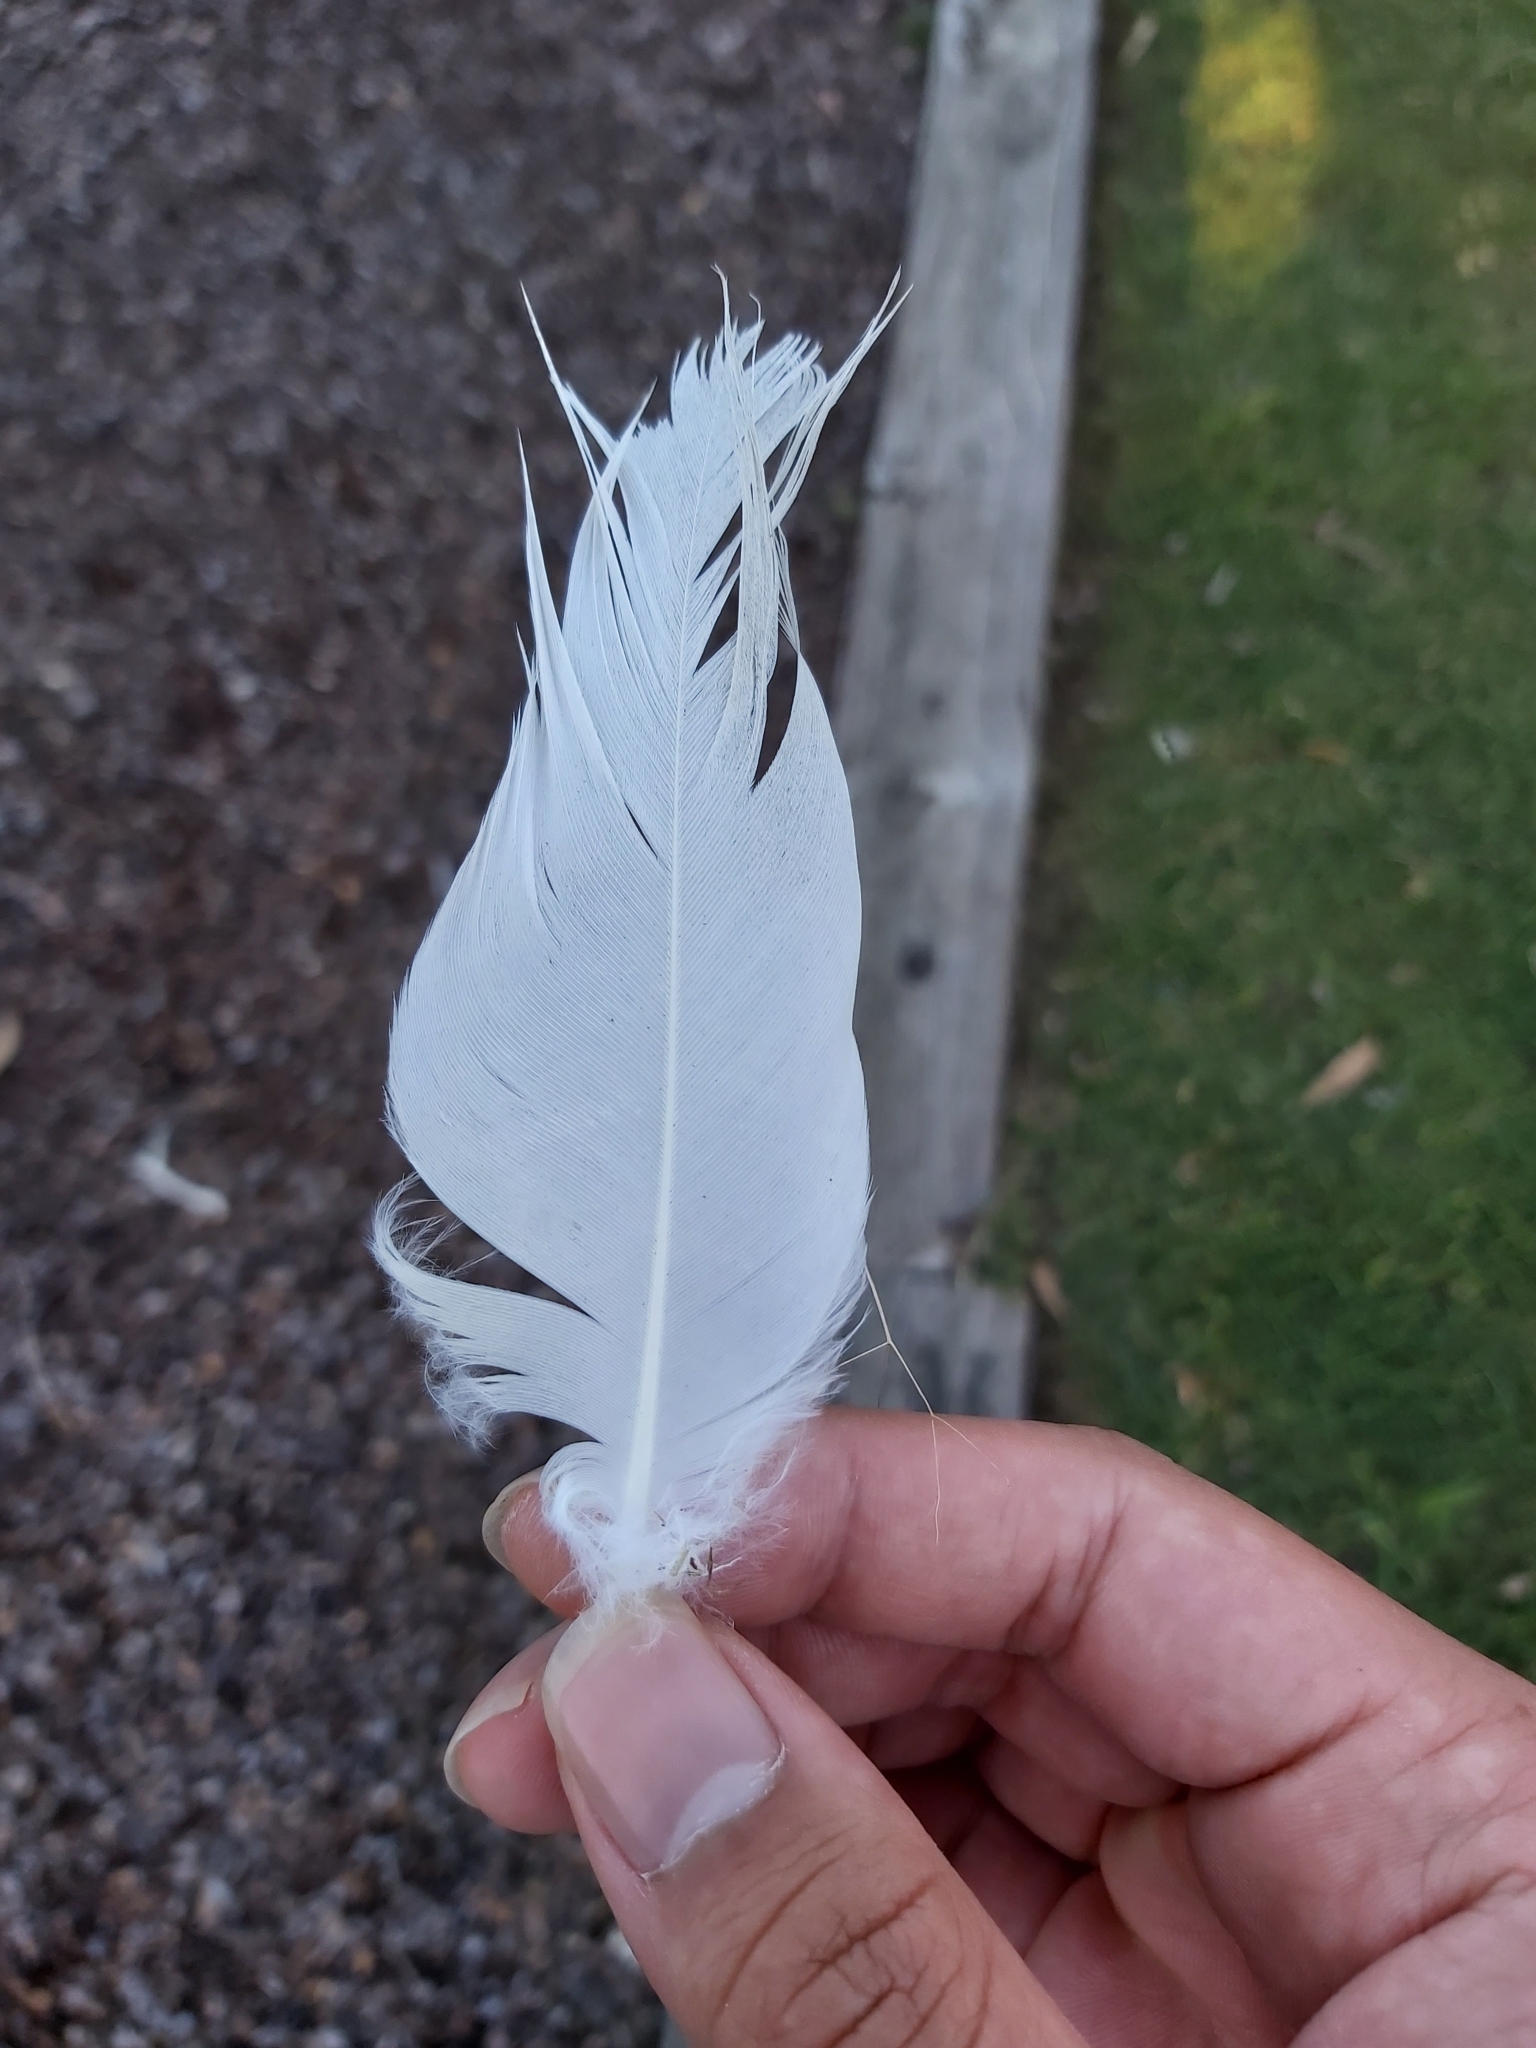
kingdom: Animalia
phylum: Chordata
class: Aves
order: Psittaciformes
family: Psittacidae
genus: Cacatua
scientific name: Cacatua galerita
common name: Sulphur-crested cockatoo
